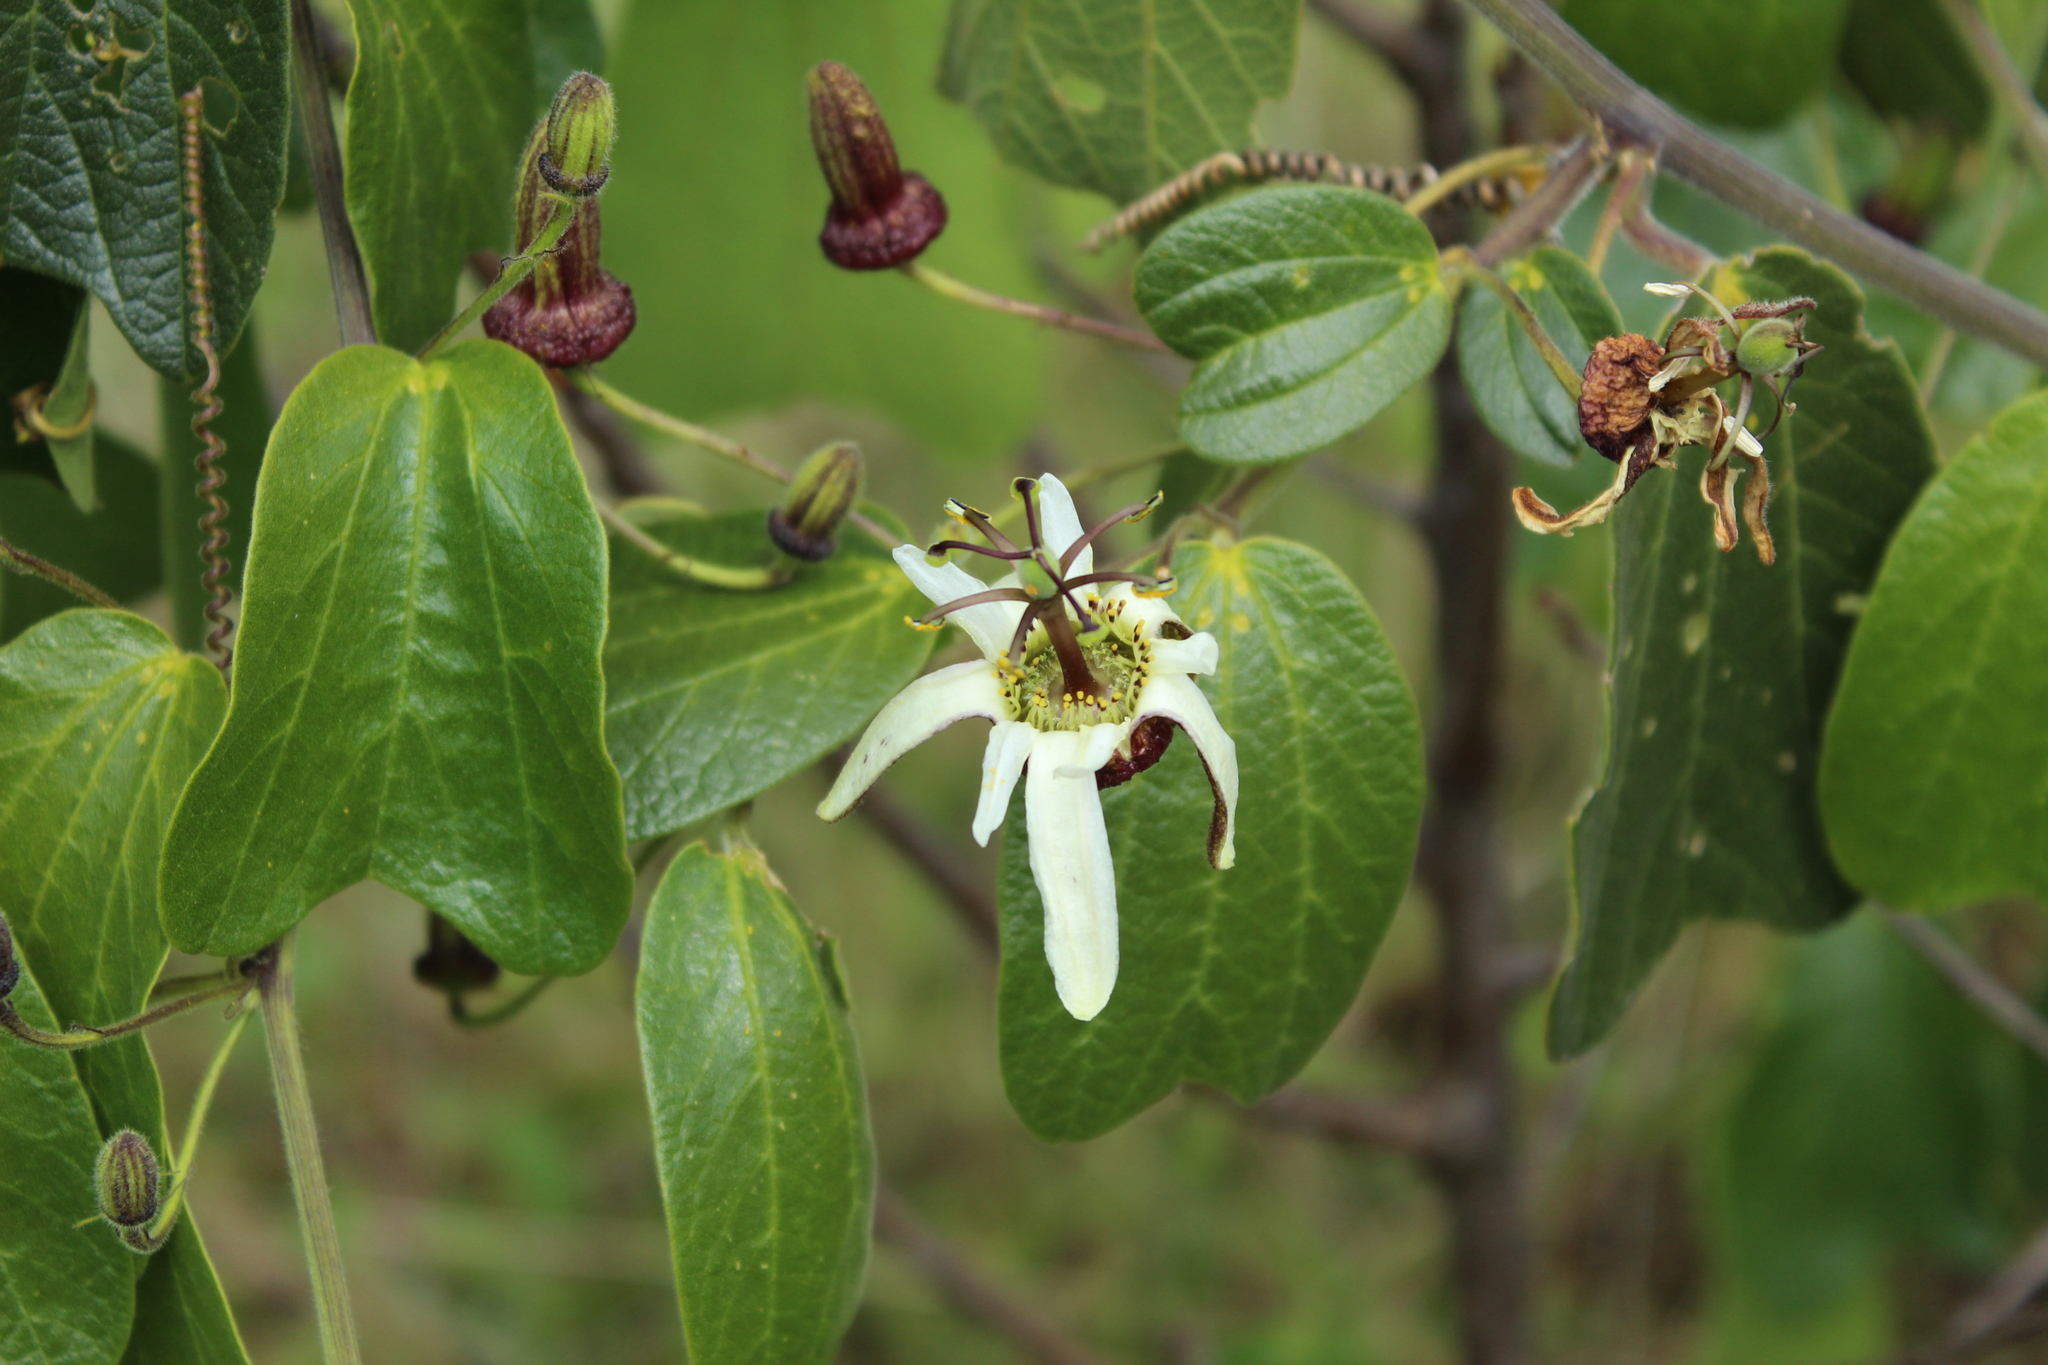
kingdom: Plantae
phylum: Tracheophyta
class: Magnoliopsida
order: Malpighiales
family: Passifloraceae
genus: Passiflora
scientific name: Passiflora bogotensis
